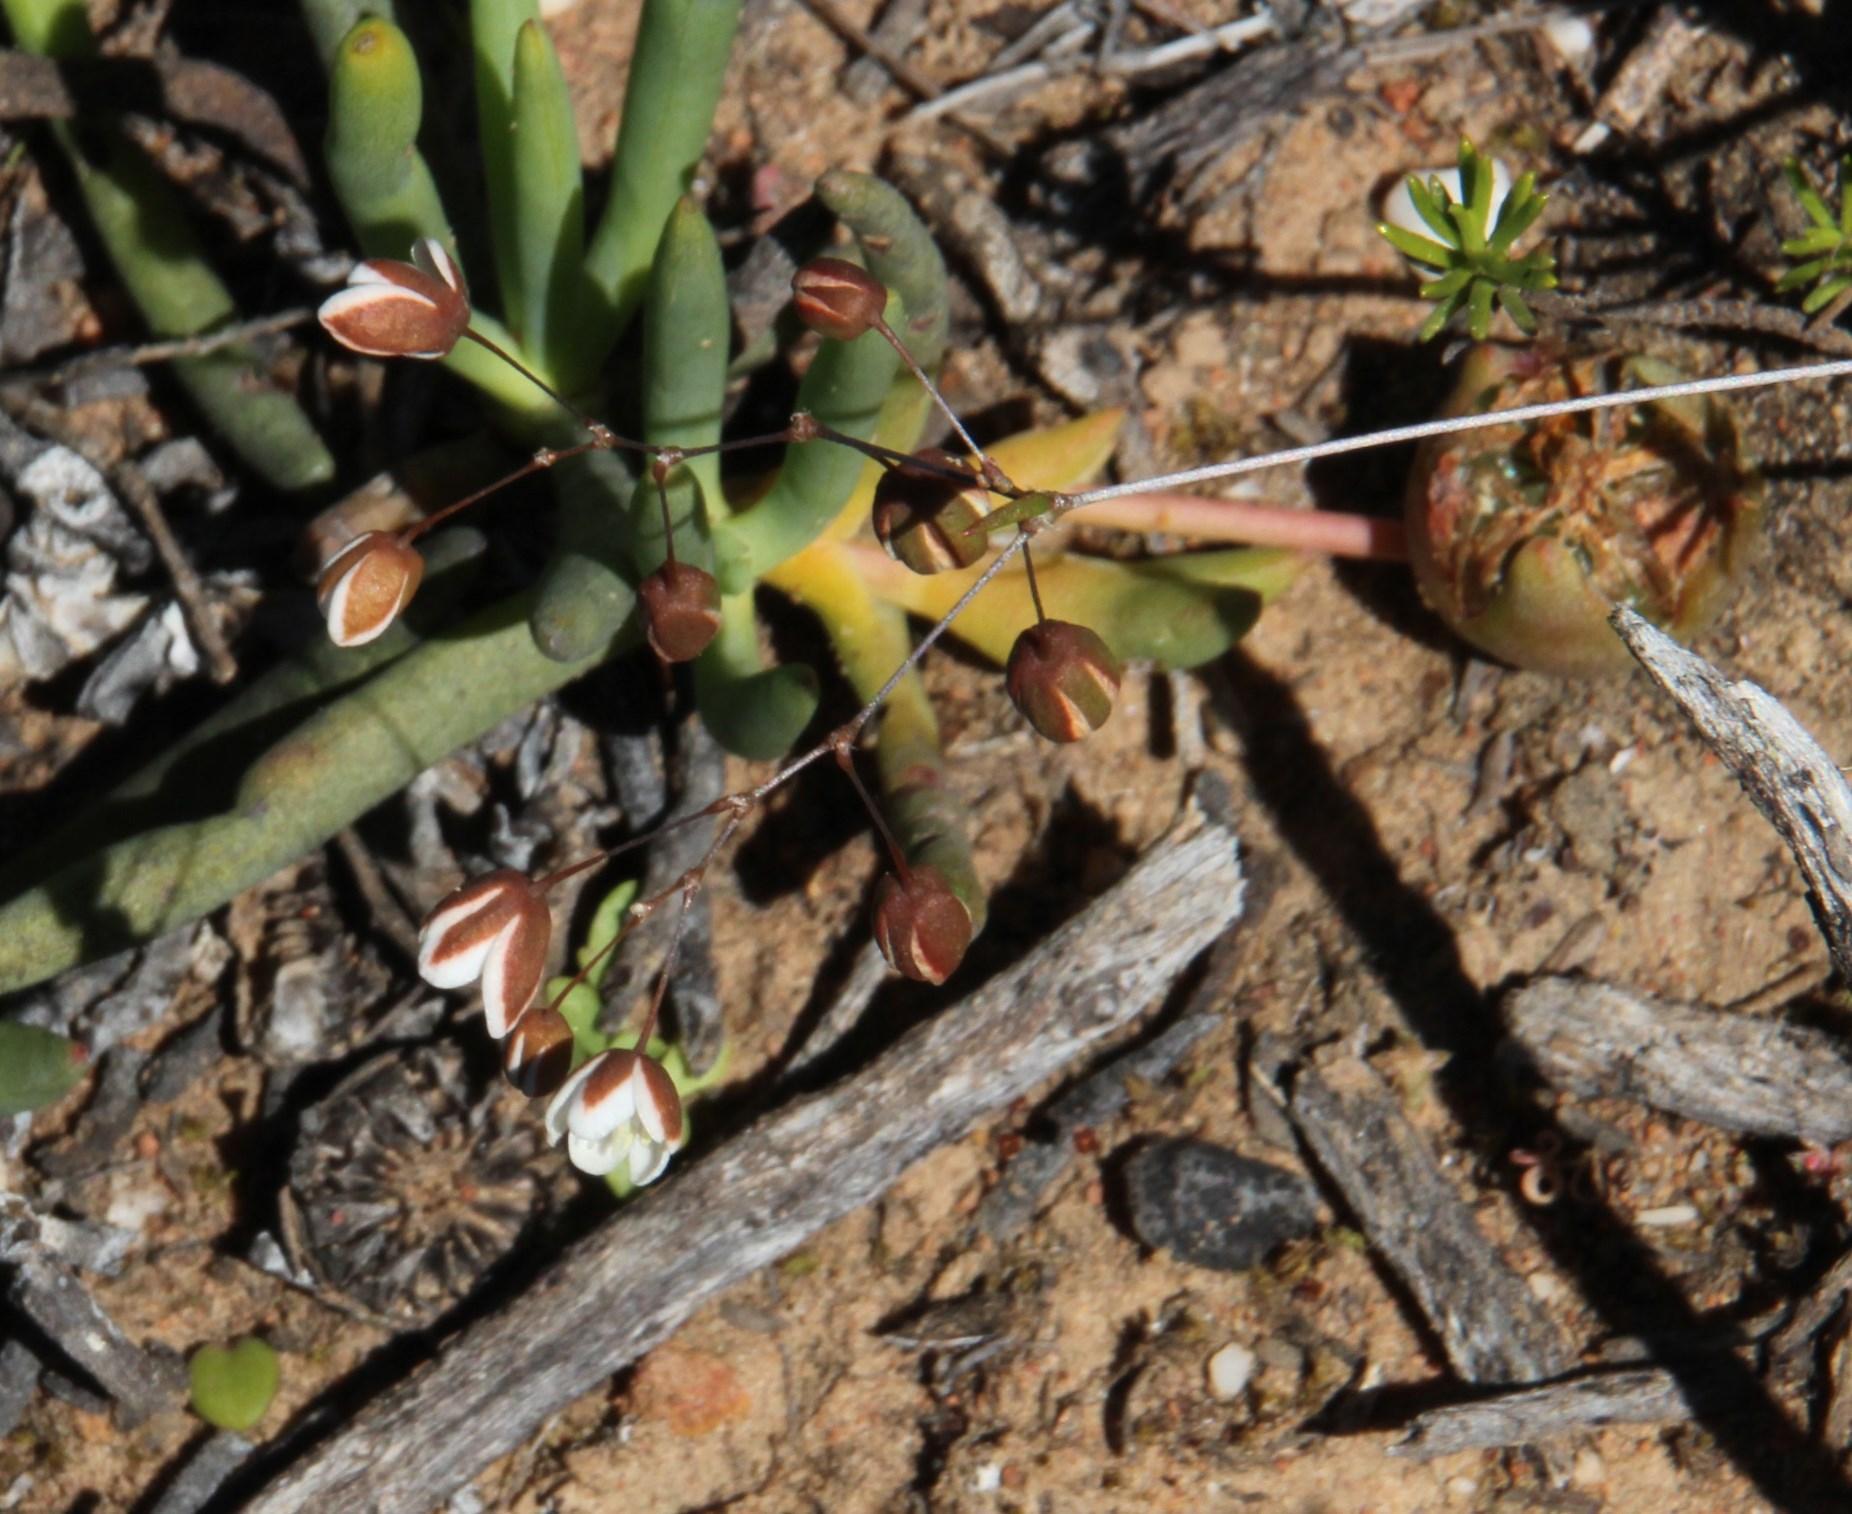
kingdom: Plantae
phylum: Tracheophyta
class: Magnoliopsida
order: Caryophyllales
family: Aizoaceae
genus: Cephalophyllum
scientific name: Cephalophyllum purpureoalbum
